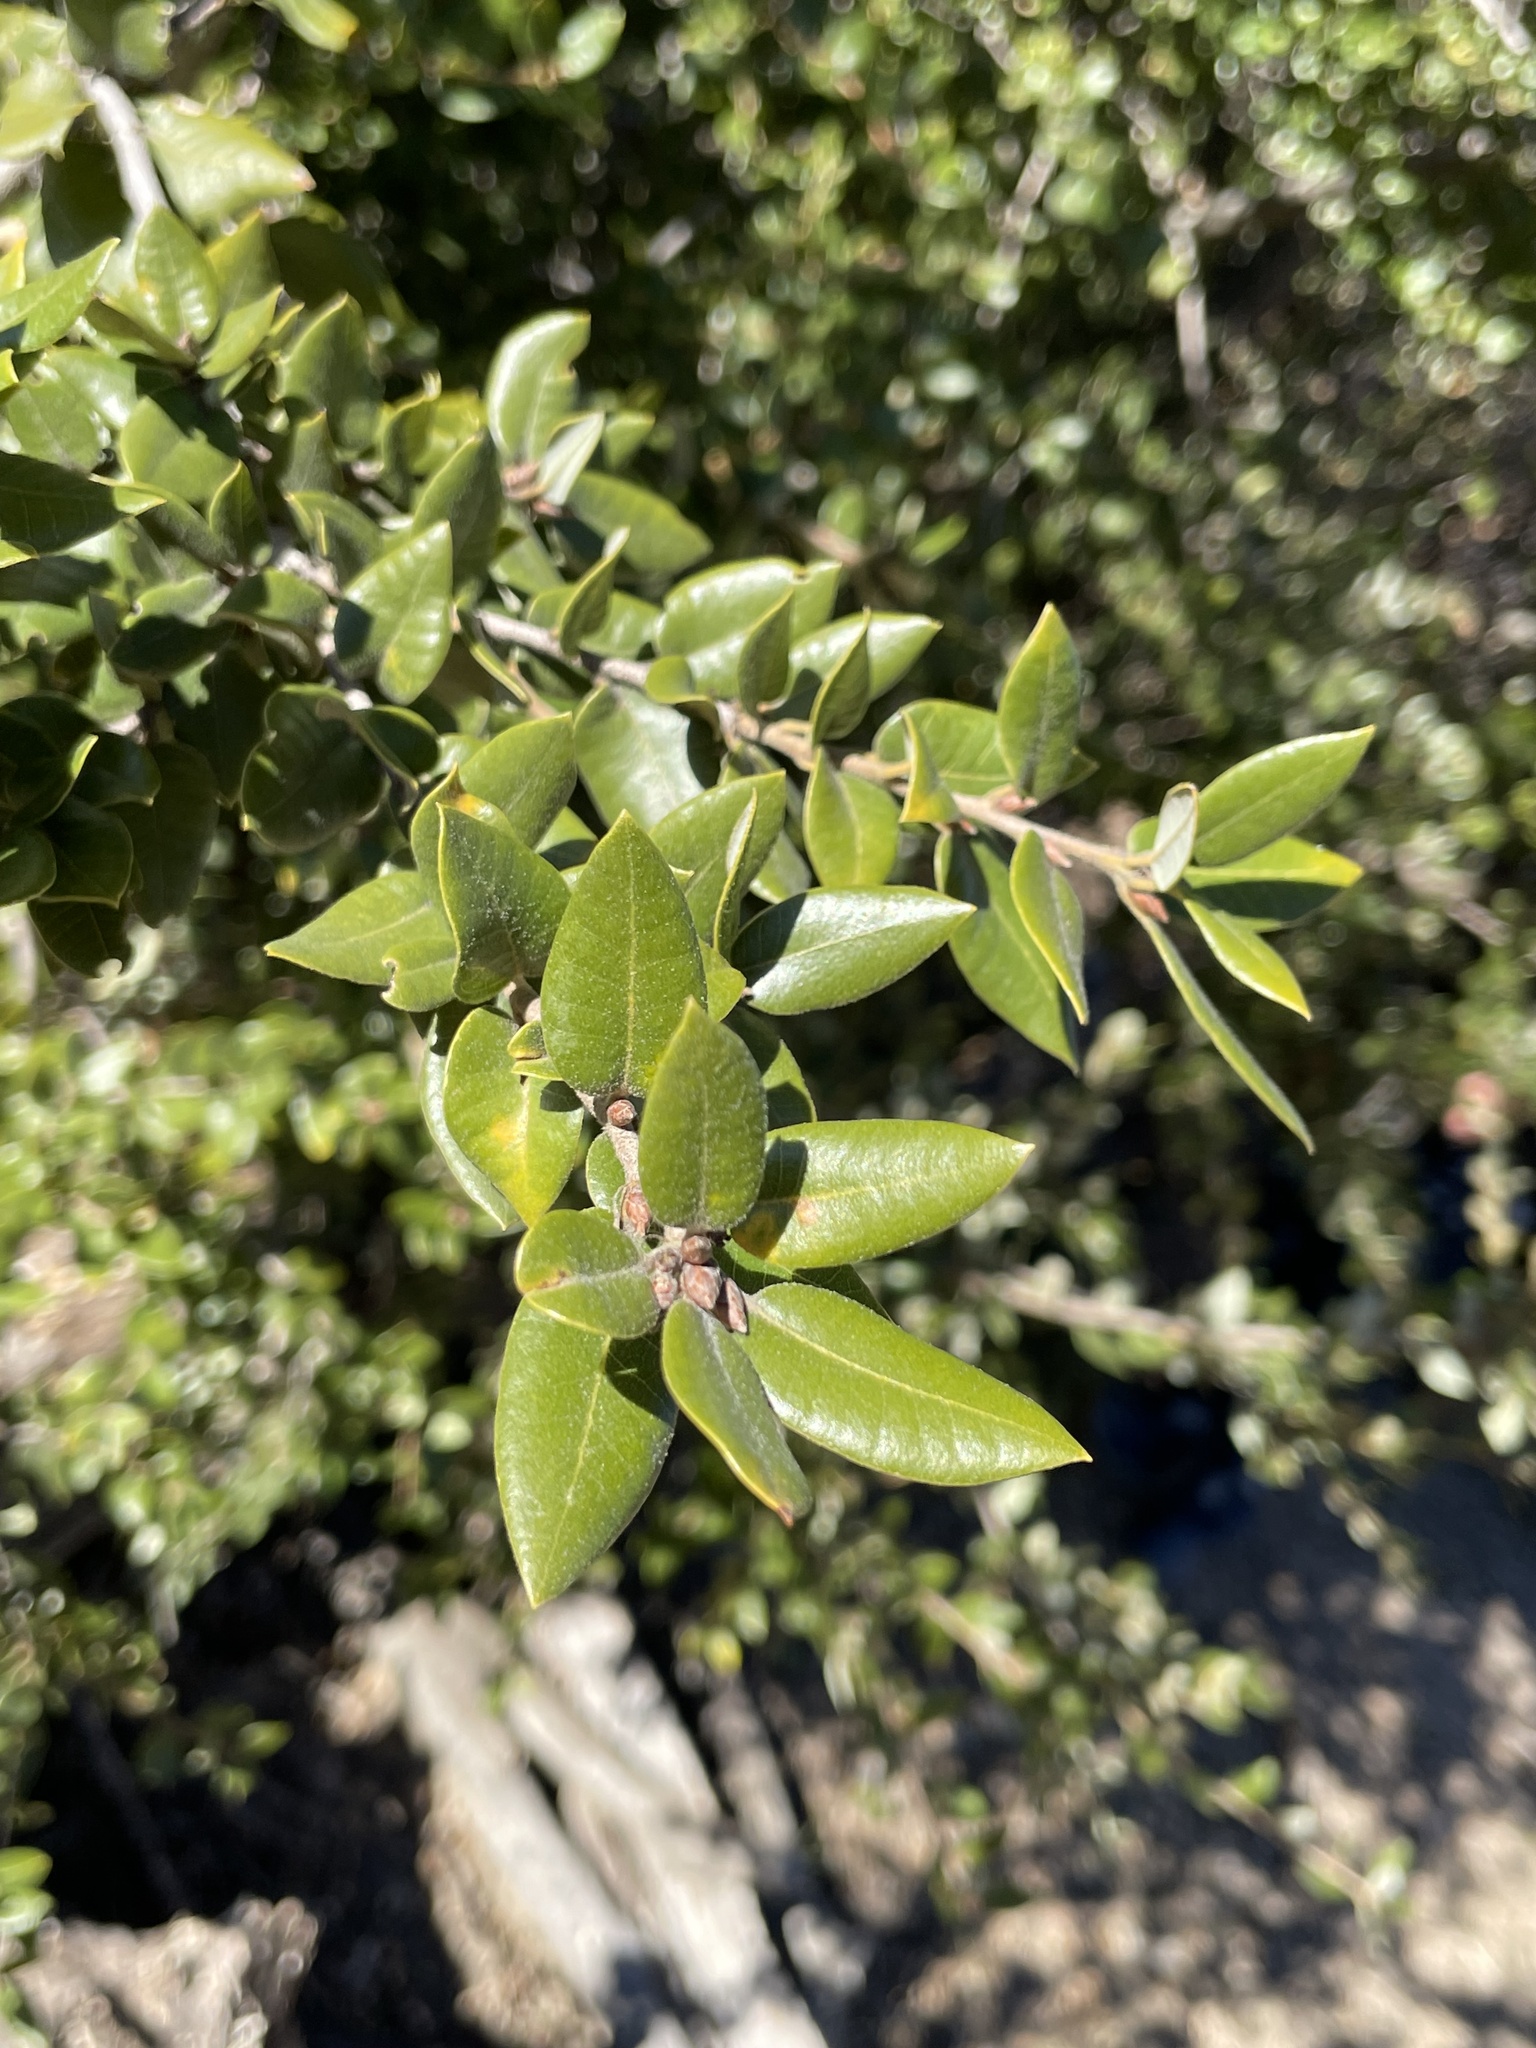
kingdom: Plantae
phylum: Tracheophyta
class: Magnoliopsida
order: Fagales
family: Fagaceae
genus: Quercus
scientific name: Quercus chrysolepis
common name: Canyon live oak
